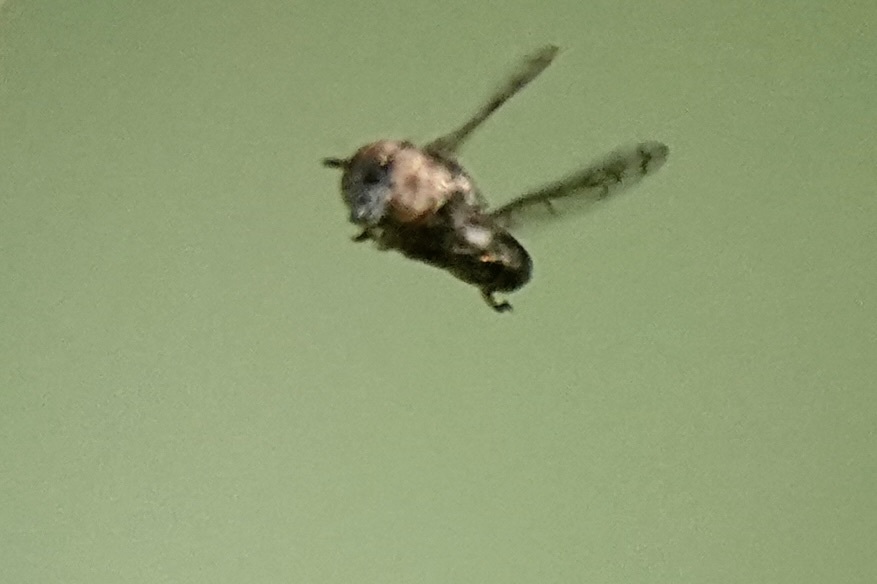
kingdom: Animalia
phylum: Arthropoda
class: Insecta
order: Diptera
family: Syrphidae
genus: Orthonevra
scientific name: Orthonevra nitida
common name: Wavy mucksucker
